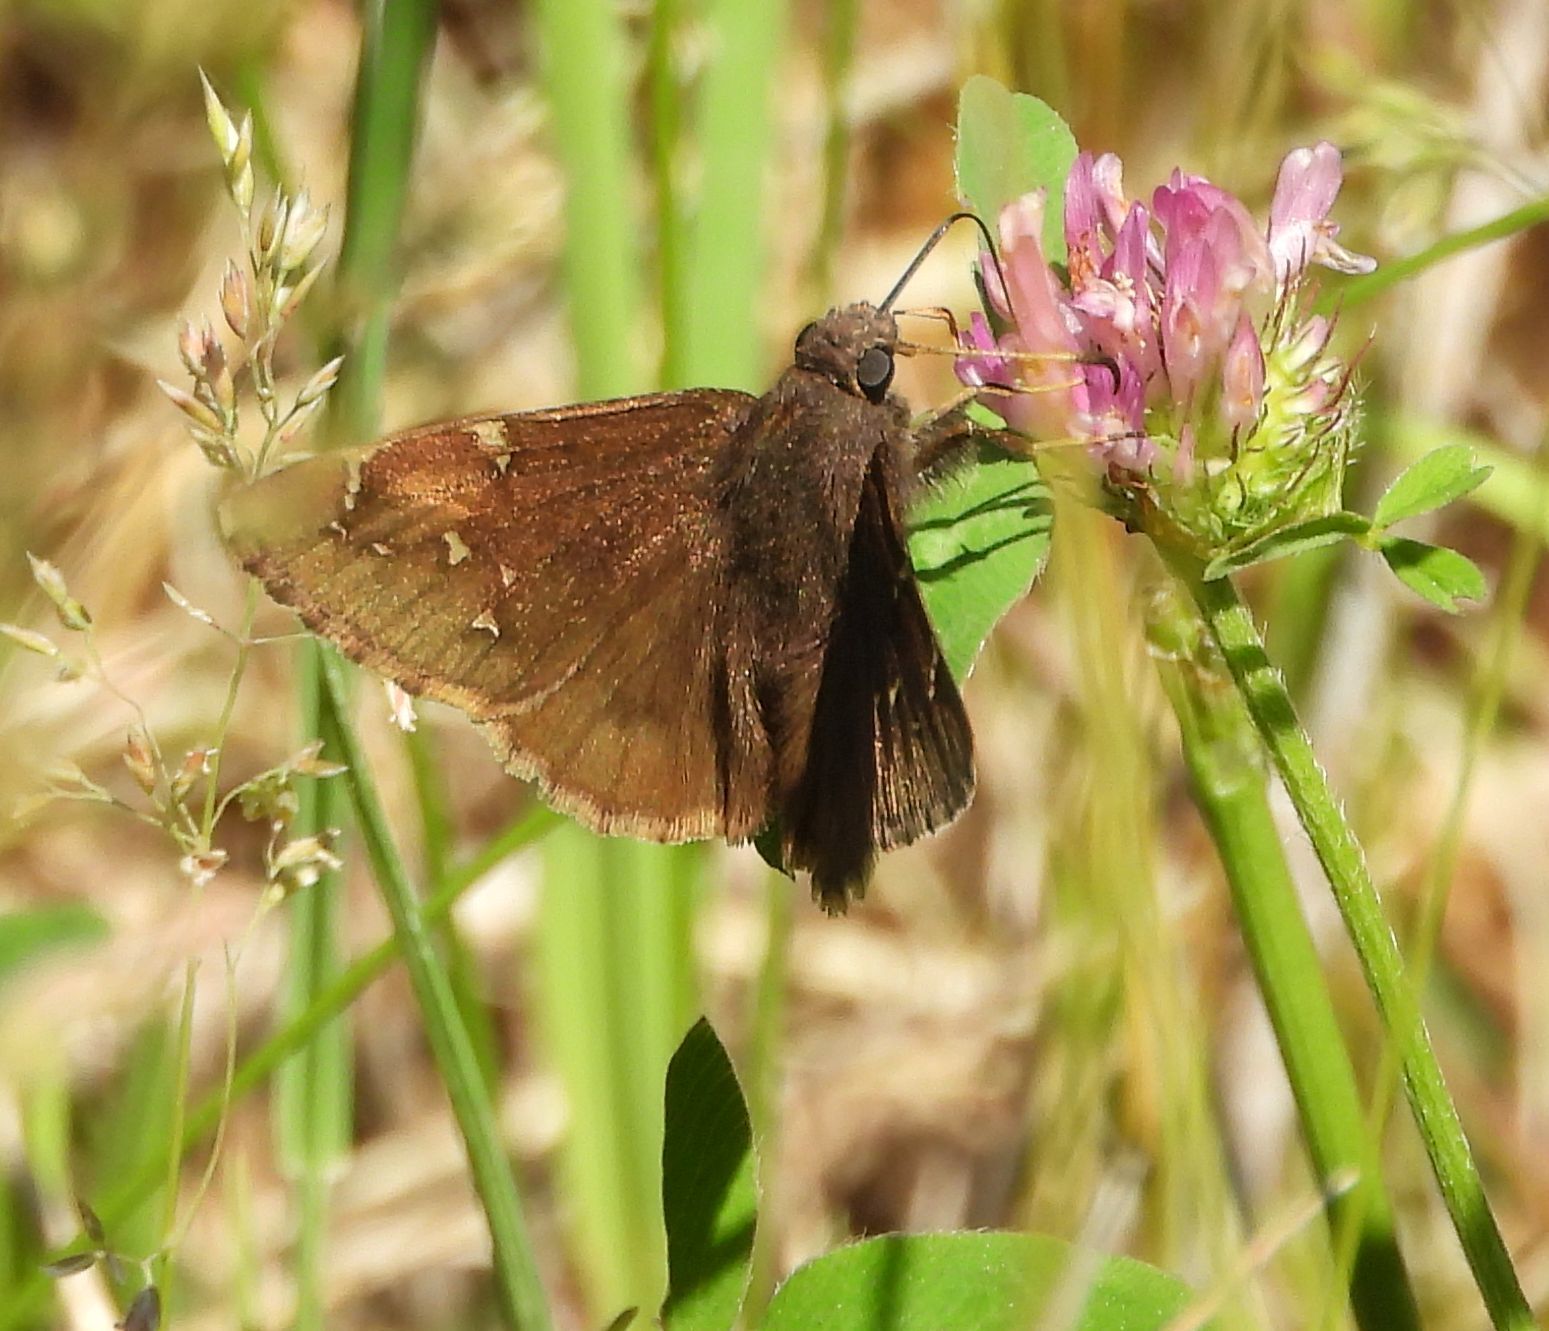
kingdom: Animalia
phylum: Arthropoda
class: Insecta
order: Lepidoptera
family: Hesperiidae
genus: Thorybes
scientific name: Thorybes pylades
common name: Northern cloudywing
